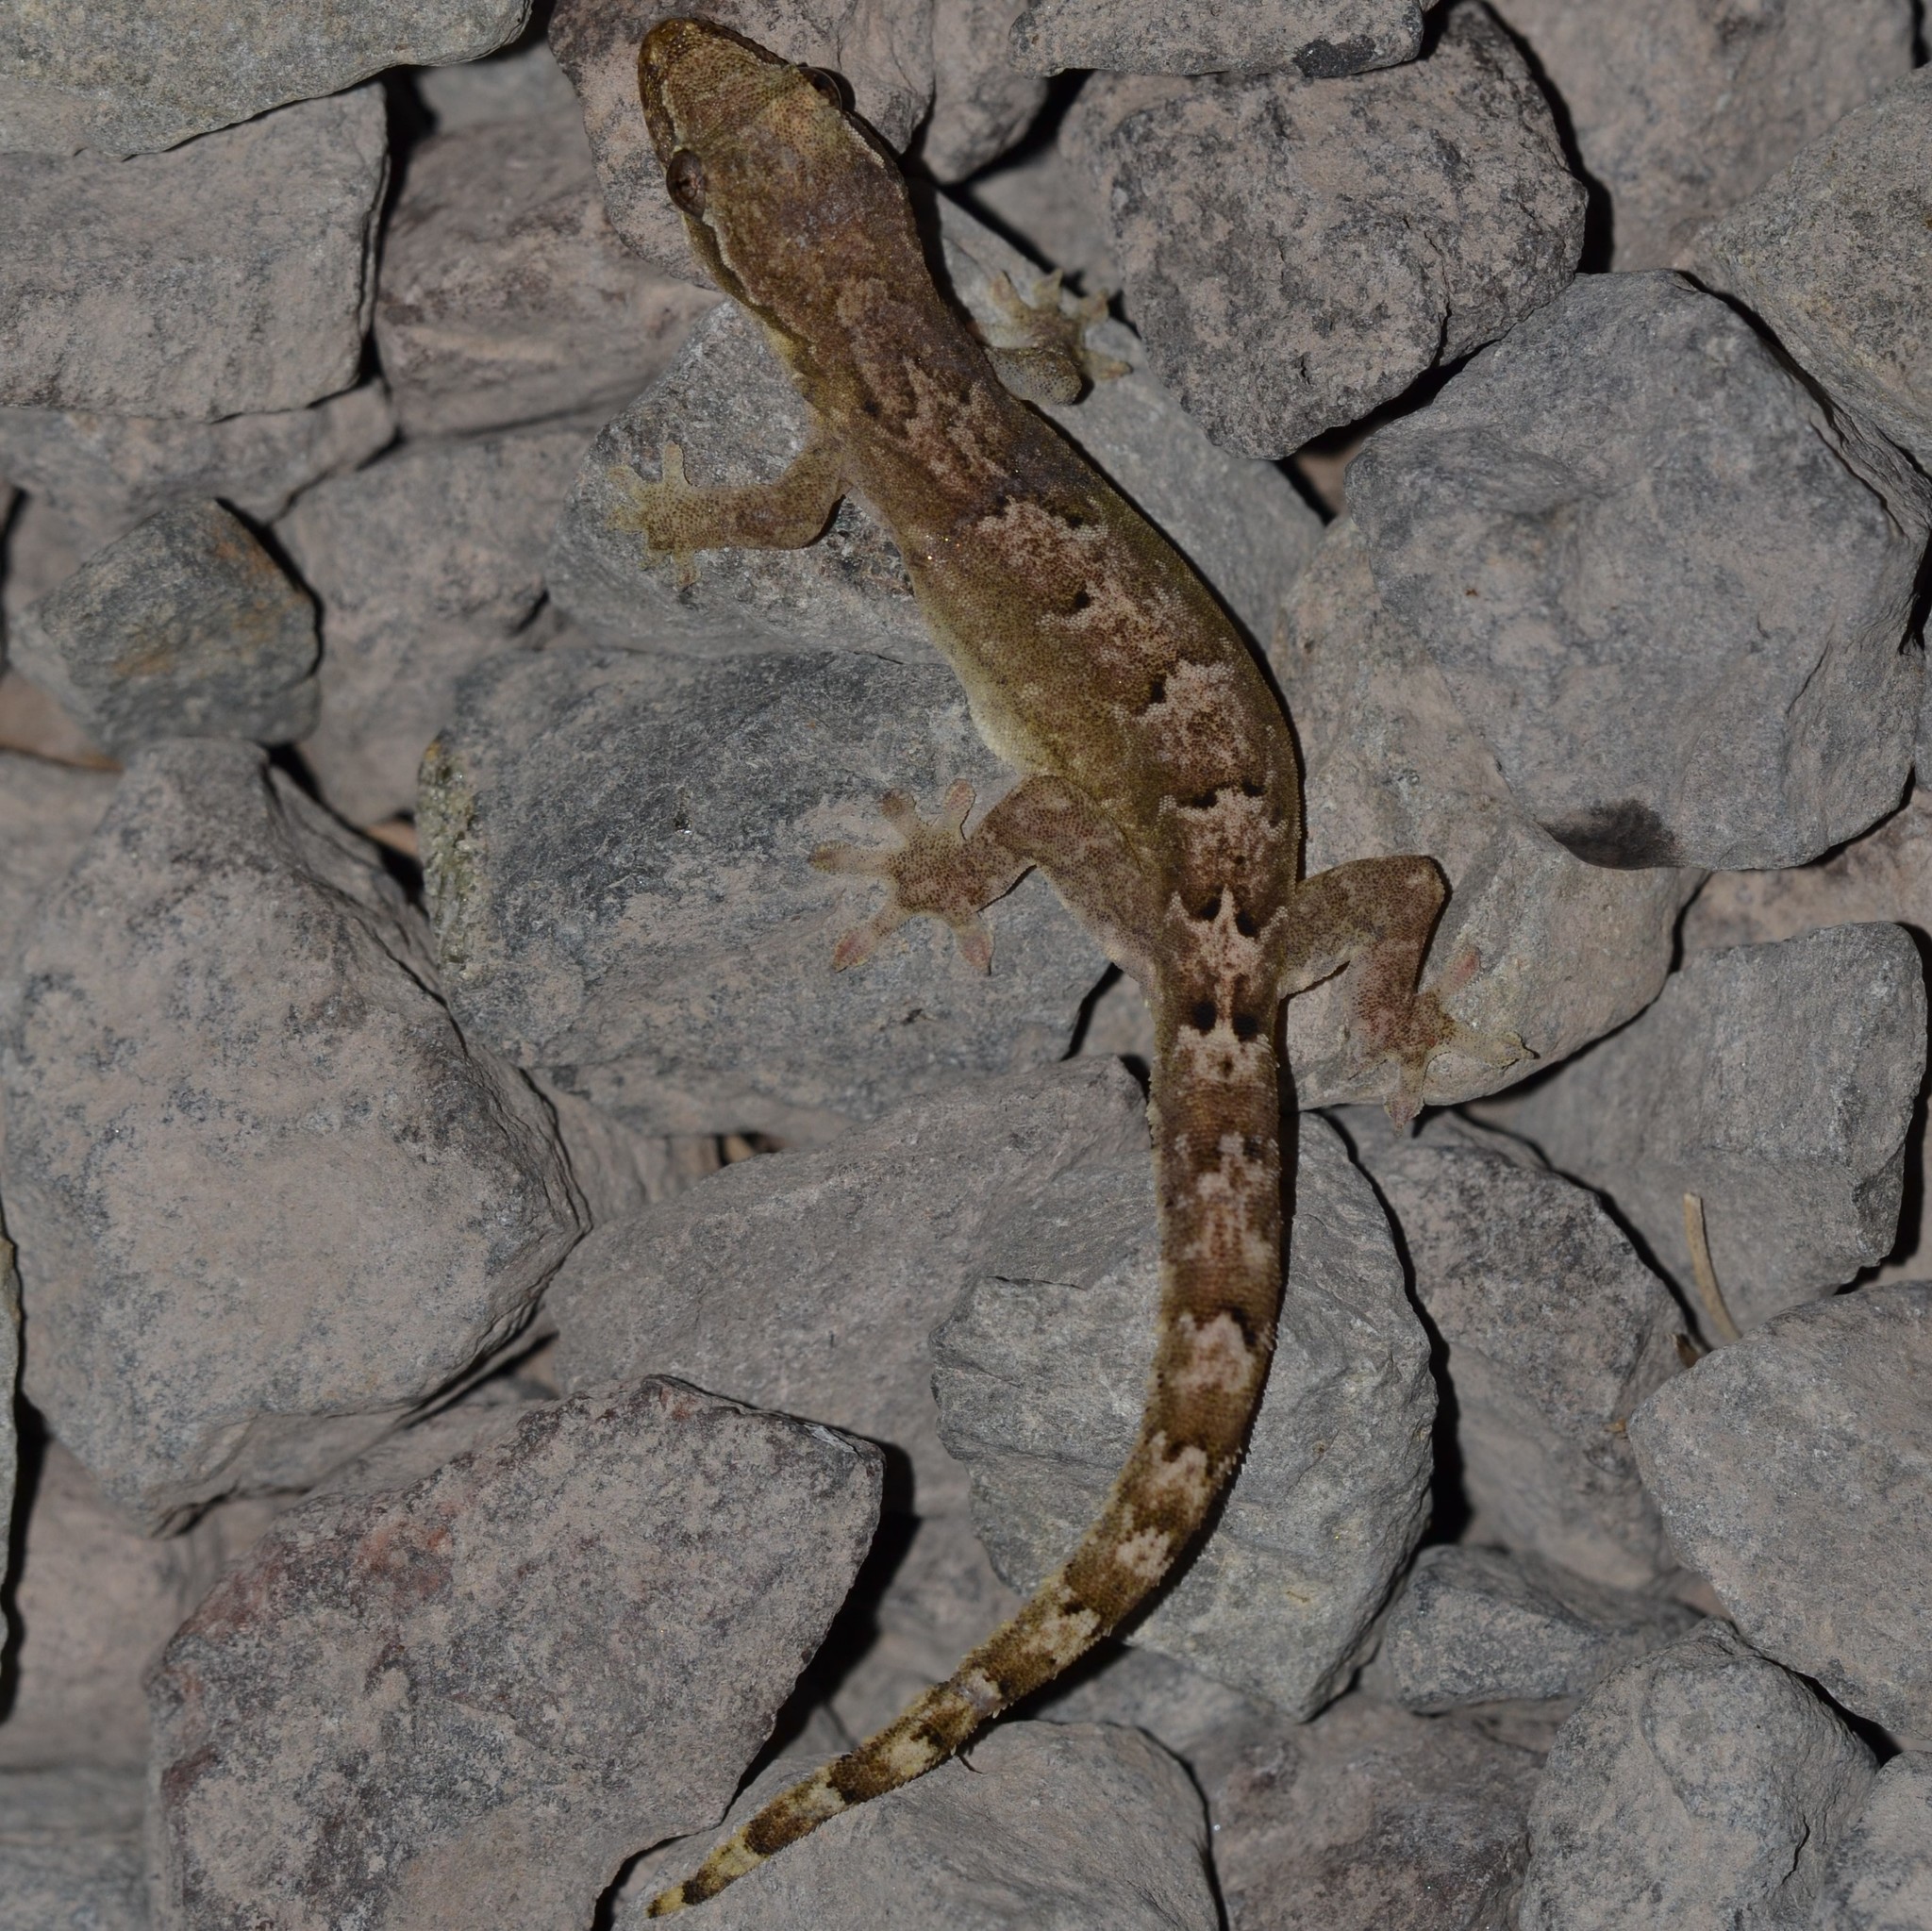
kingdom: Animalia
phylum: Chordata
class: Squamata
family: Gekkonidae
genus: Lepidodactylus
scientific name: Lepidodactylus lugubris
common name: Mourning gecko
